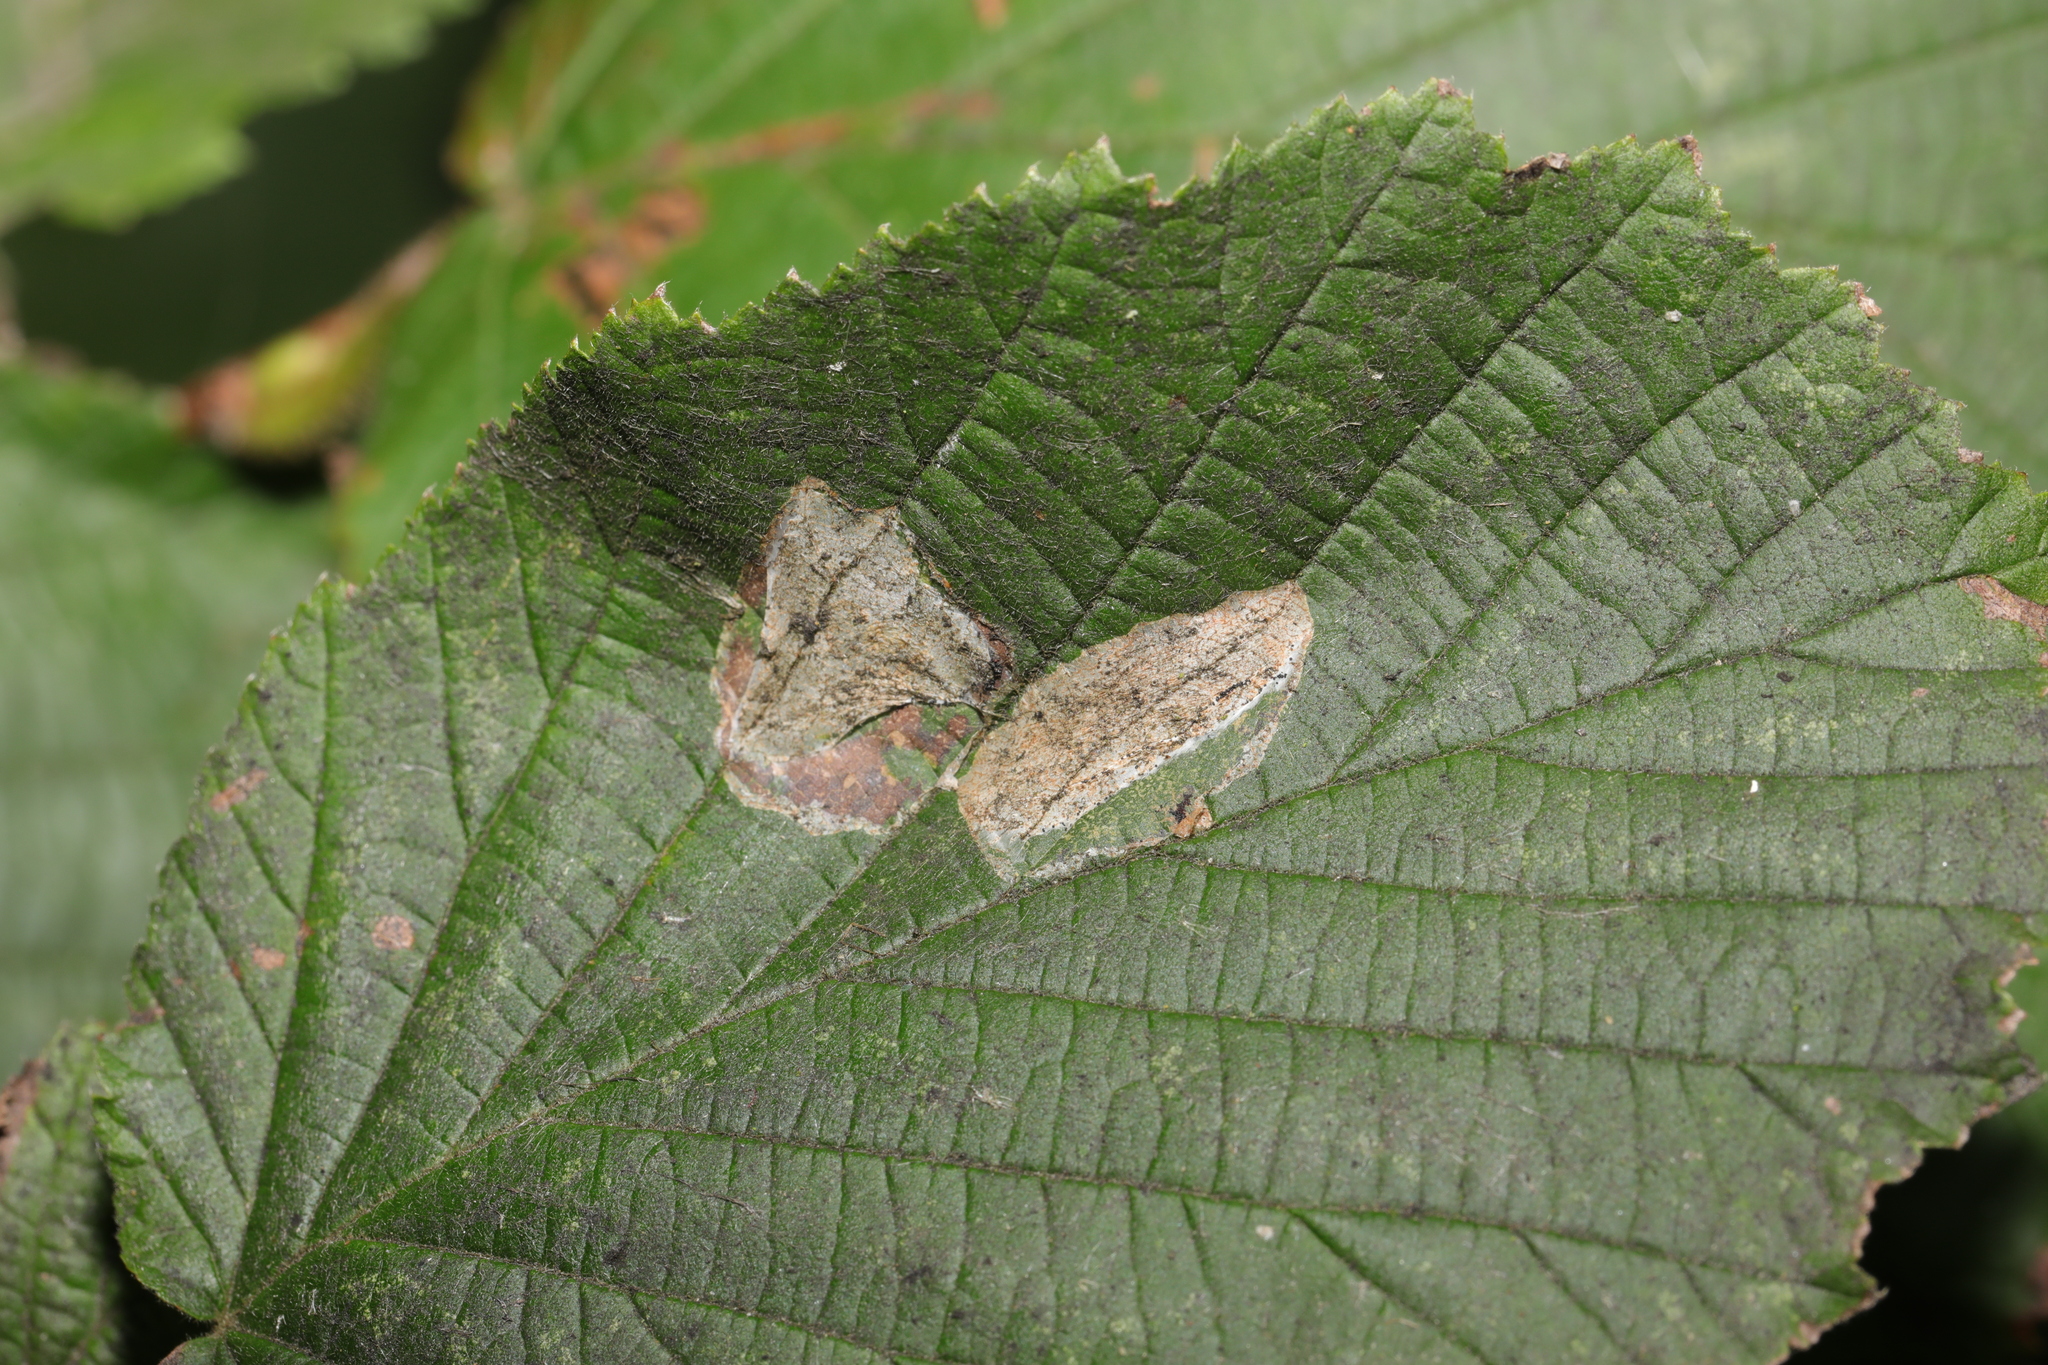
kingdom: Animalia
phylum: Arthropoda
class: Insecta
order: Lepidoptera
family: Gracillariidae
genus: Phyllonorycter
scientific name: Phyllonorycter coryli
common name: Nut-leaf blister moth
